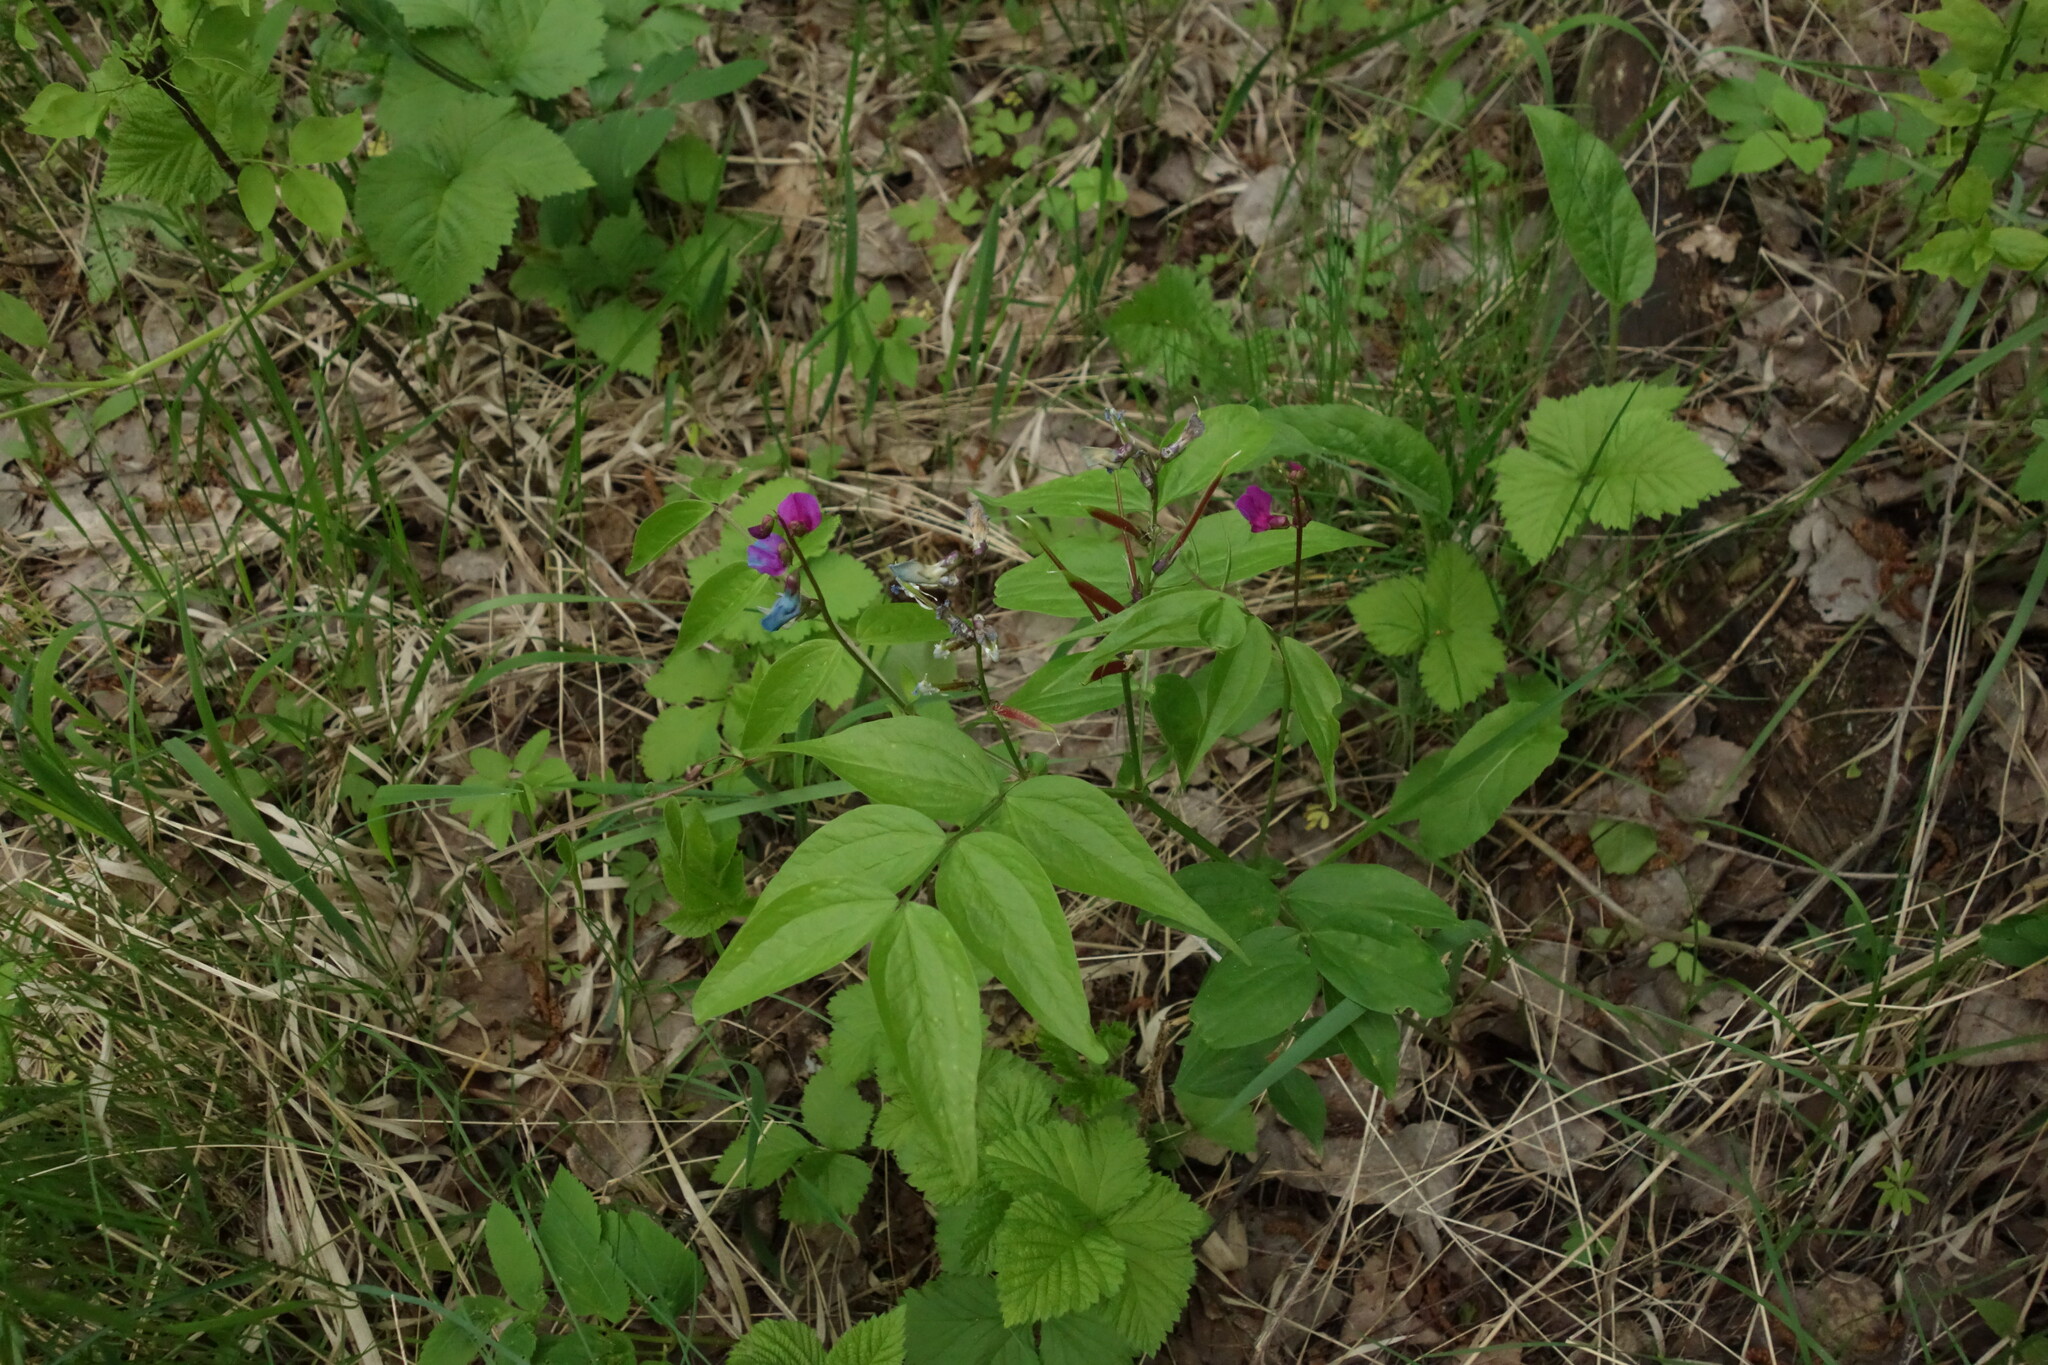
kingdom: Plantae
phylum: Tracheophyta
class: Magnoliopsida
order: Fabales
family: Fabaceae
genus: Lathyrus
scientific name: Lathyrus vernus
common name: Spring pea
